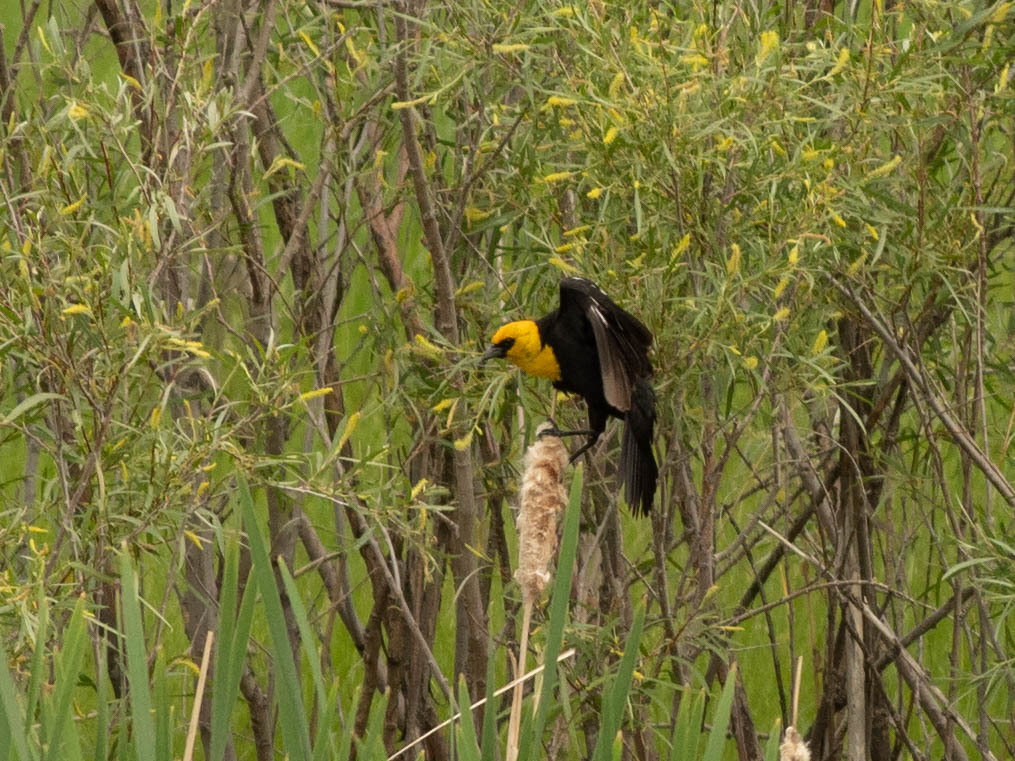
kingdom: Animalia
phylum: Chordata
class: Aves
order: Passeriformes
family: Icteridae
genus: Xanthocephalus
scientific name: Xanthocephalus xanthocephalus
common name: Yellow-headed blackbird
